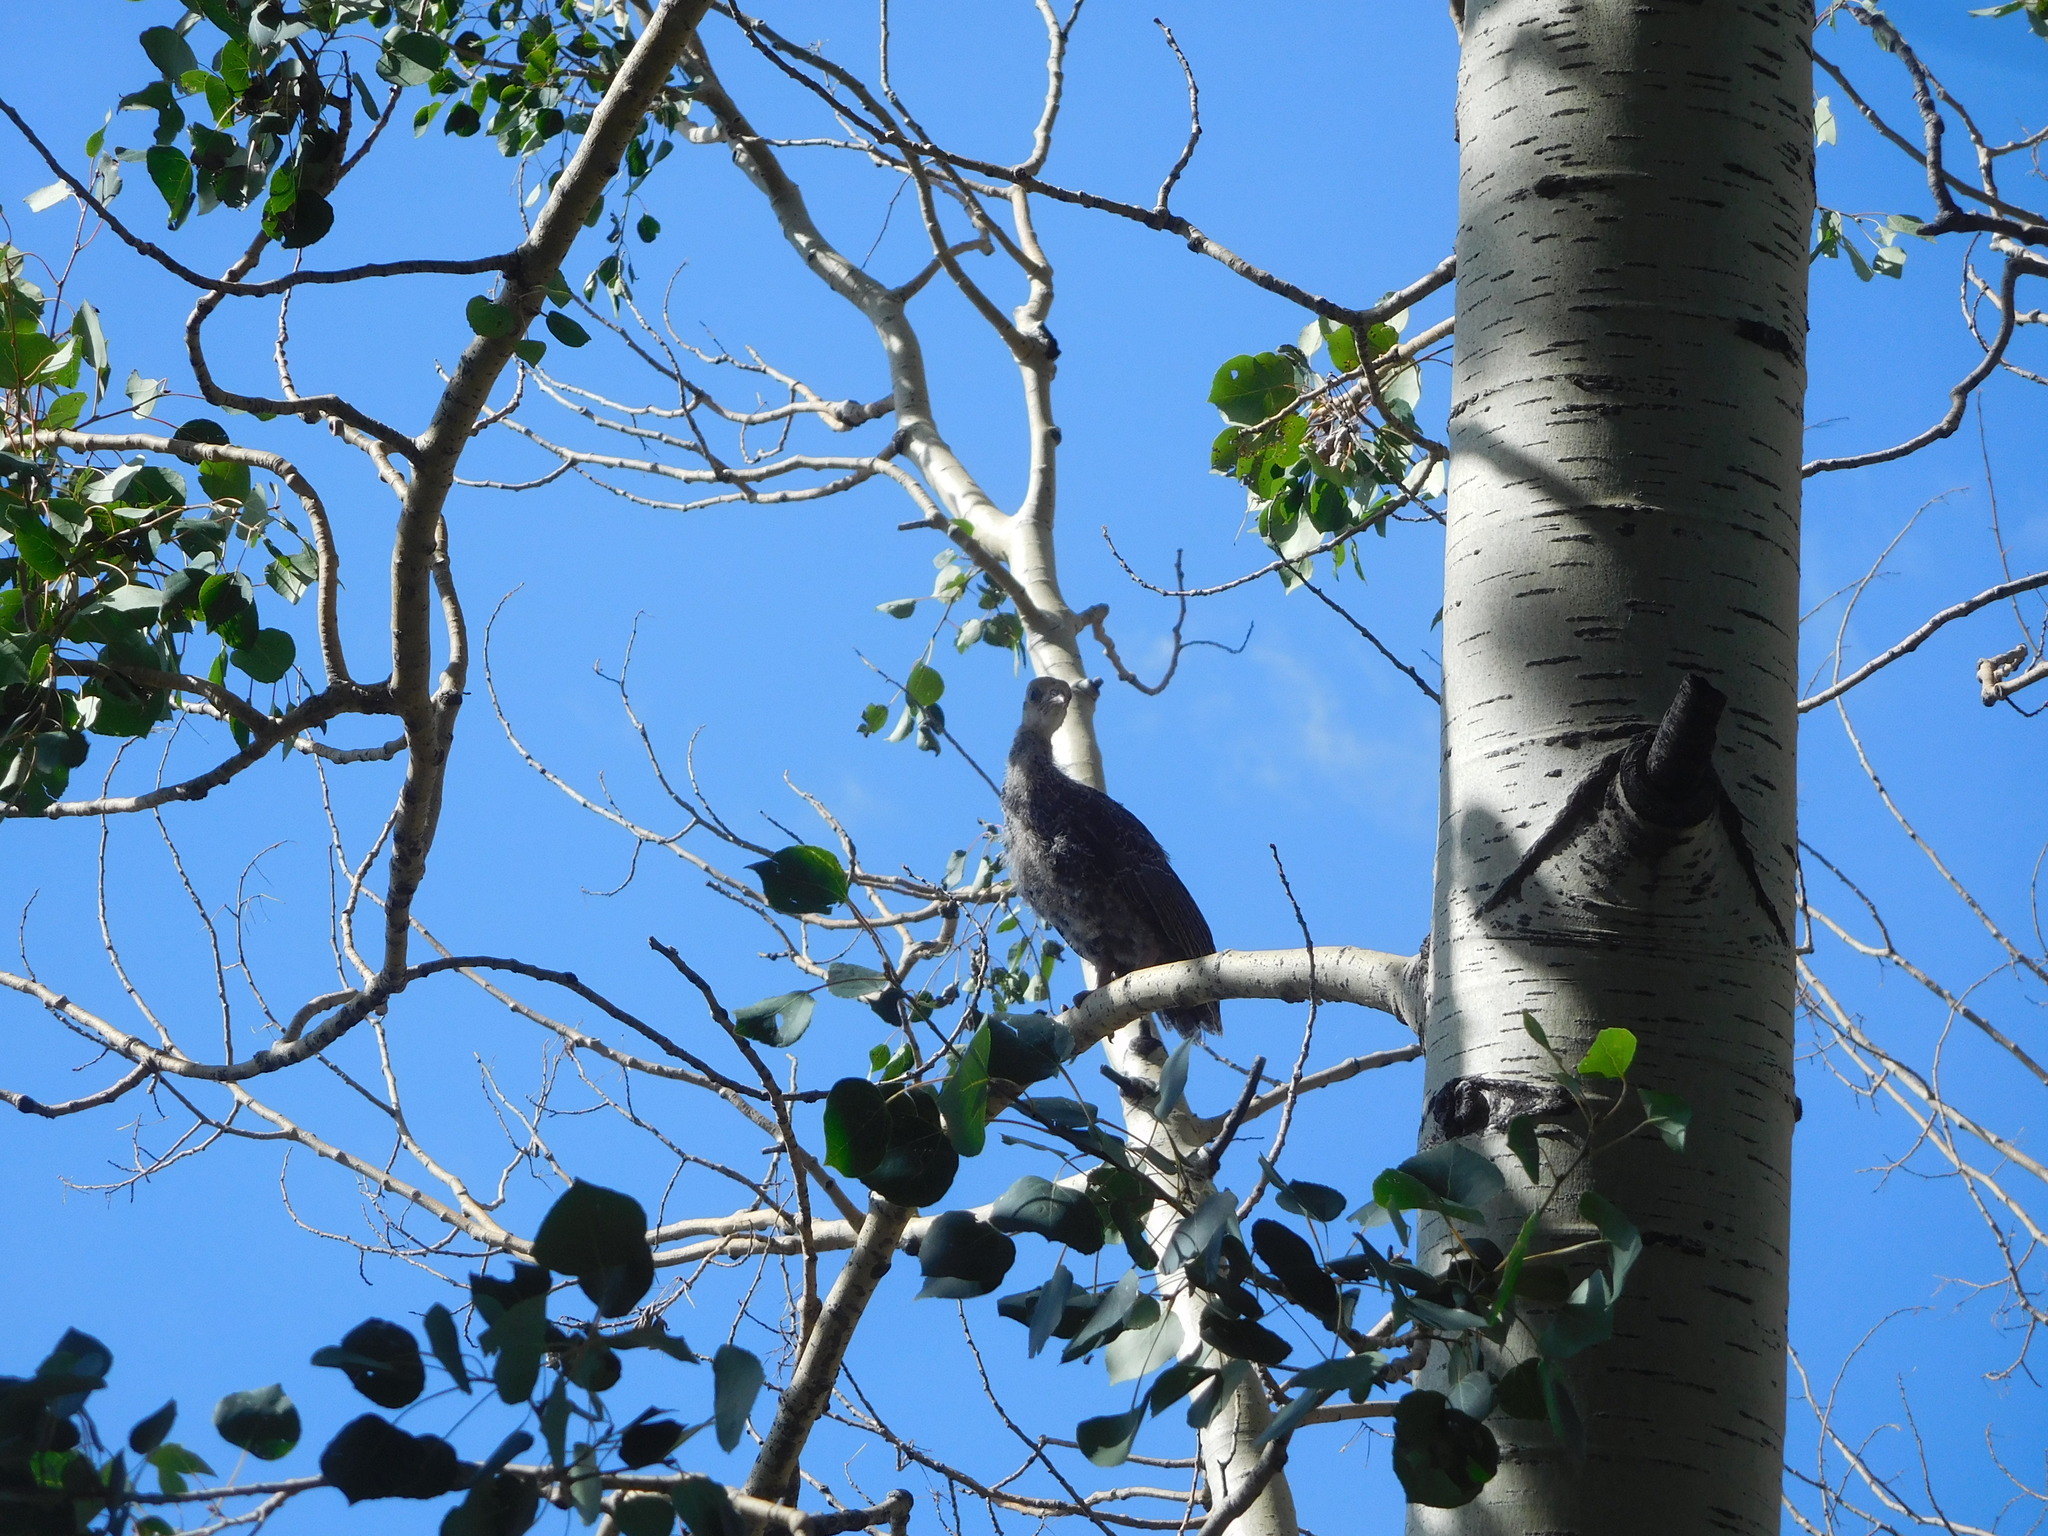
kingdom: Animalia
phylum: Chordata
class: Aves
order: Galliformes
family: Phasianidae
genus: Meleagris
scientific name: Meleagris gallopavo
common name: Wild turkey
